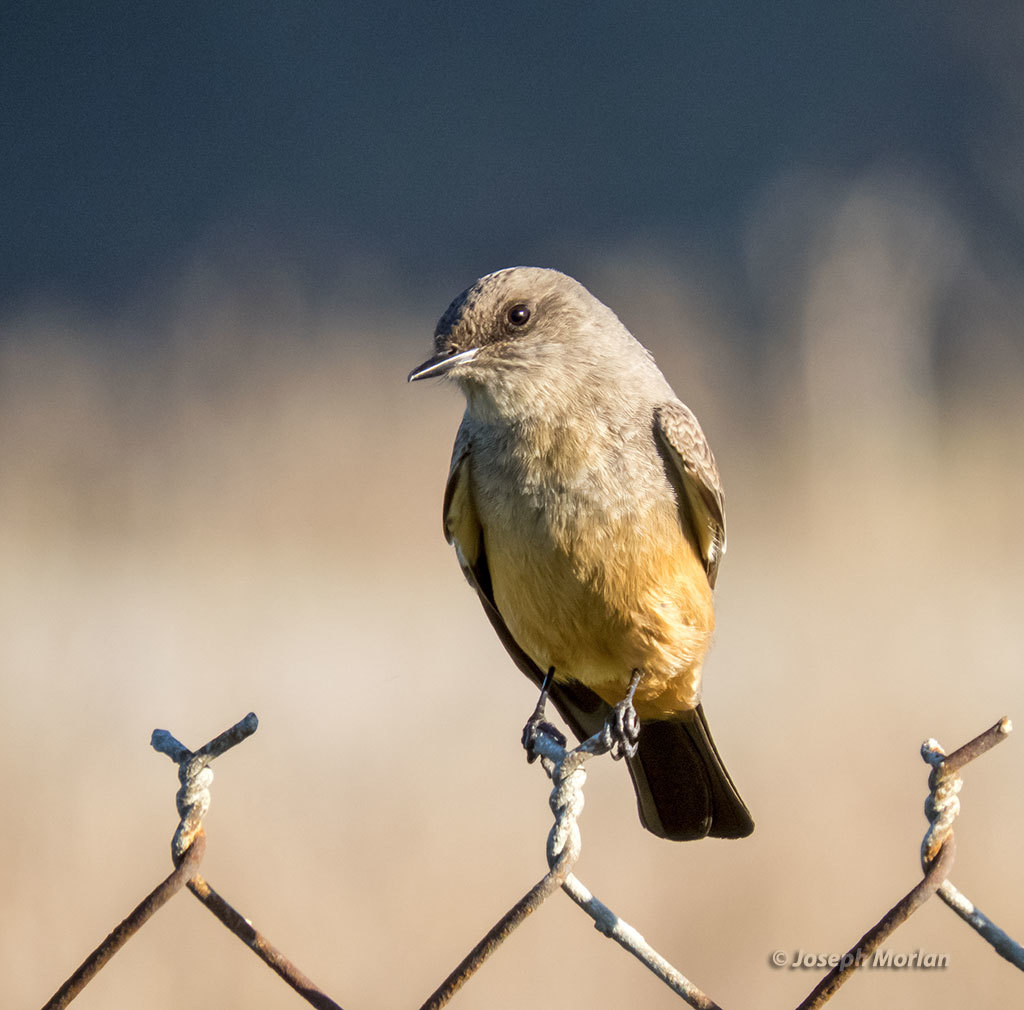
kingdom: Animalia
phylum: Chordata
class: Aves
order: Passeriformes
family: Tyrannidae
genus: Sayornis
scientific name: Sayornis saya
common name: Say's phoebe
